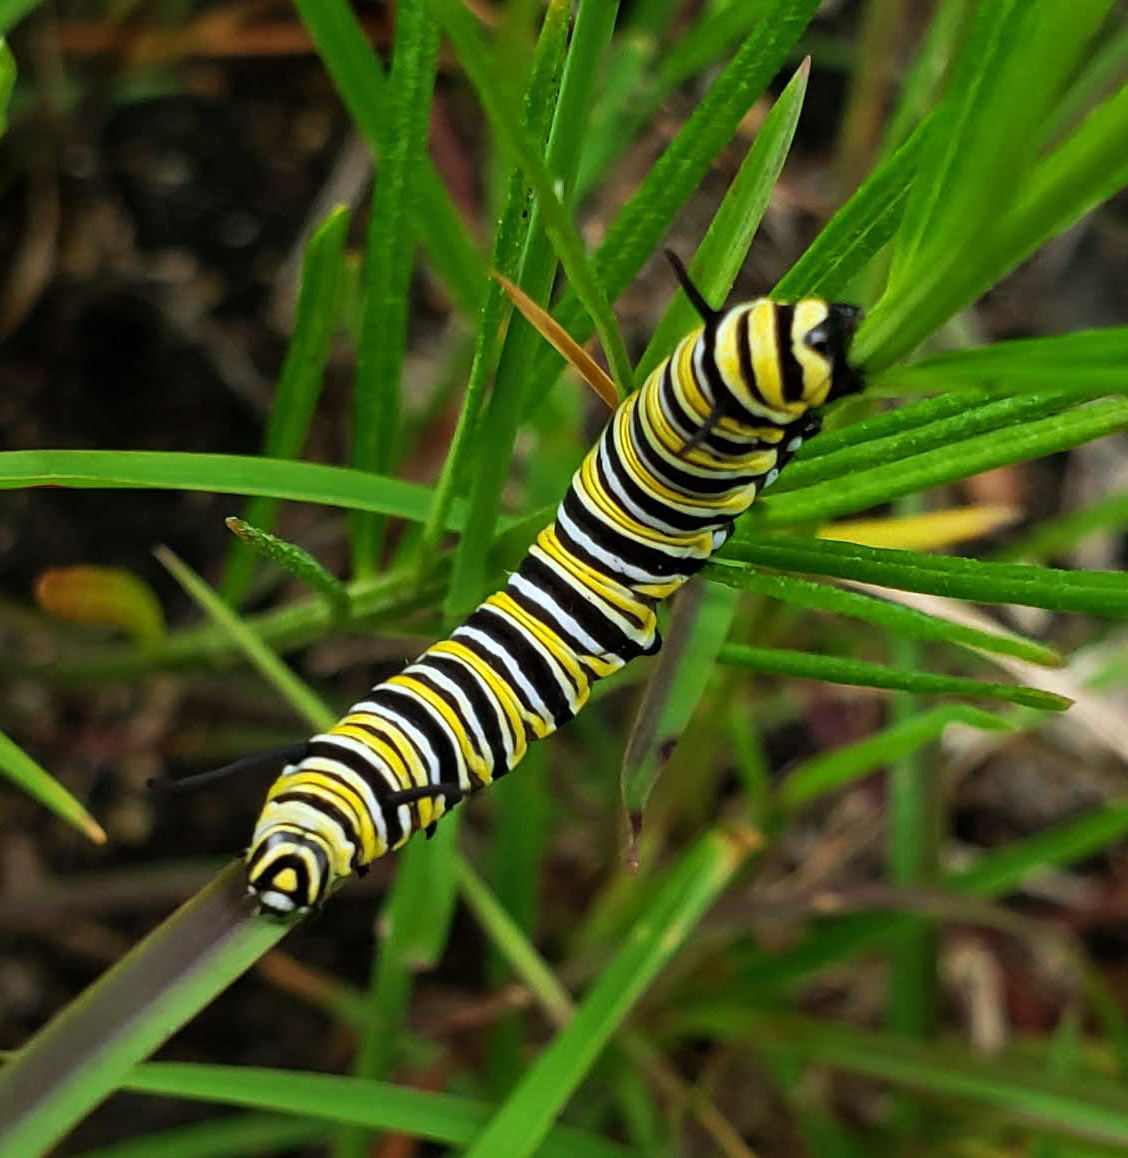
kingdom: Animalia
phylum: Arthropoda
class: Insecta
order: Lepidoptera
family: Nymphalidae
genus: Danaus
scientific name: Danaus plexippus
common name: Monarch
